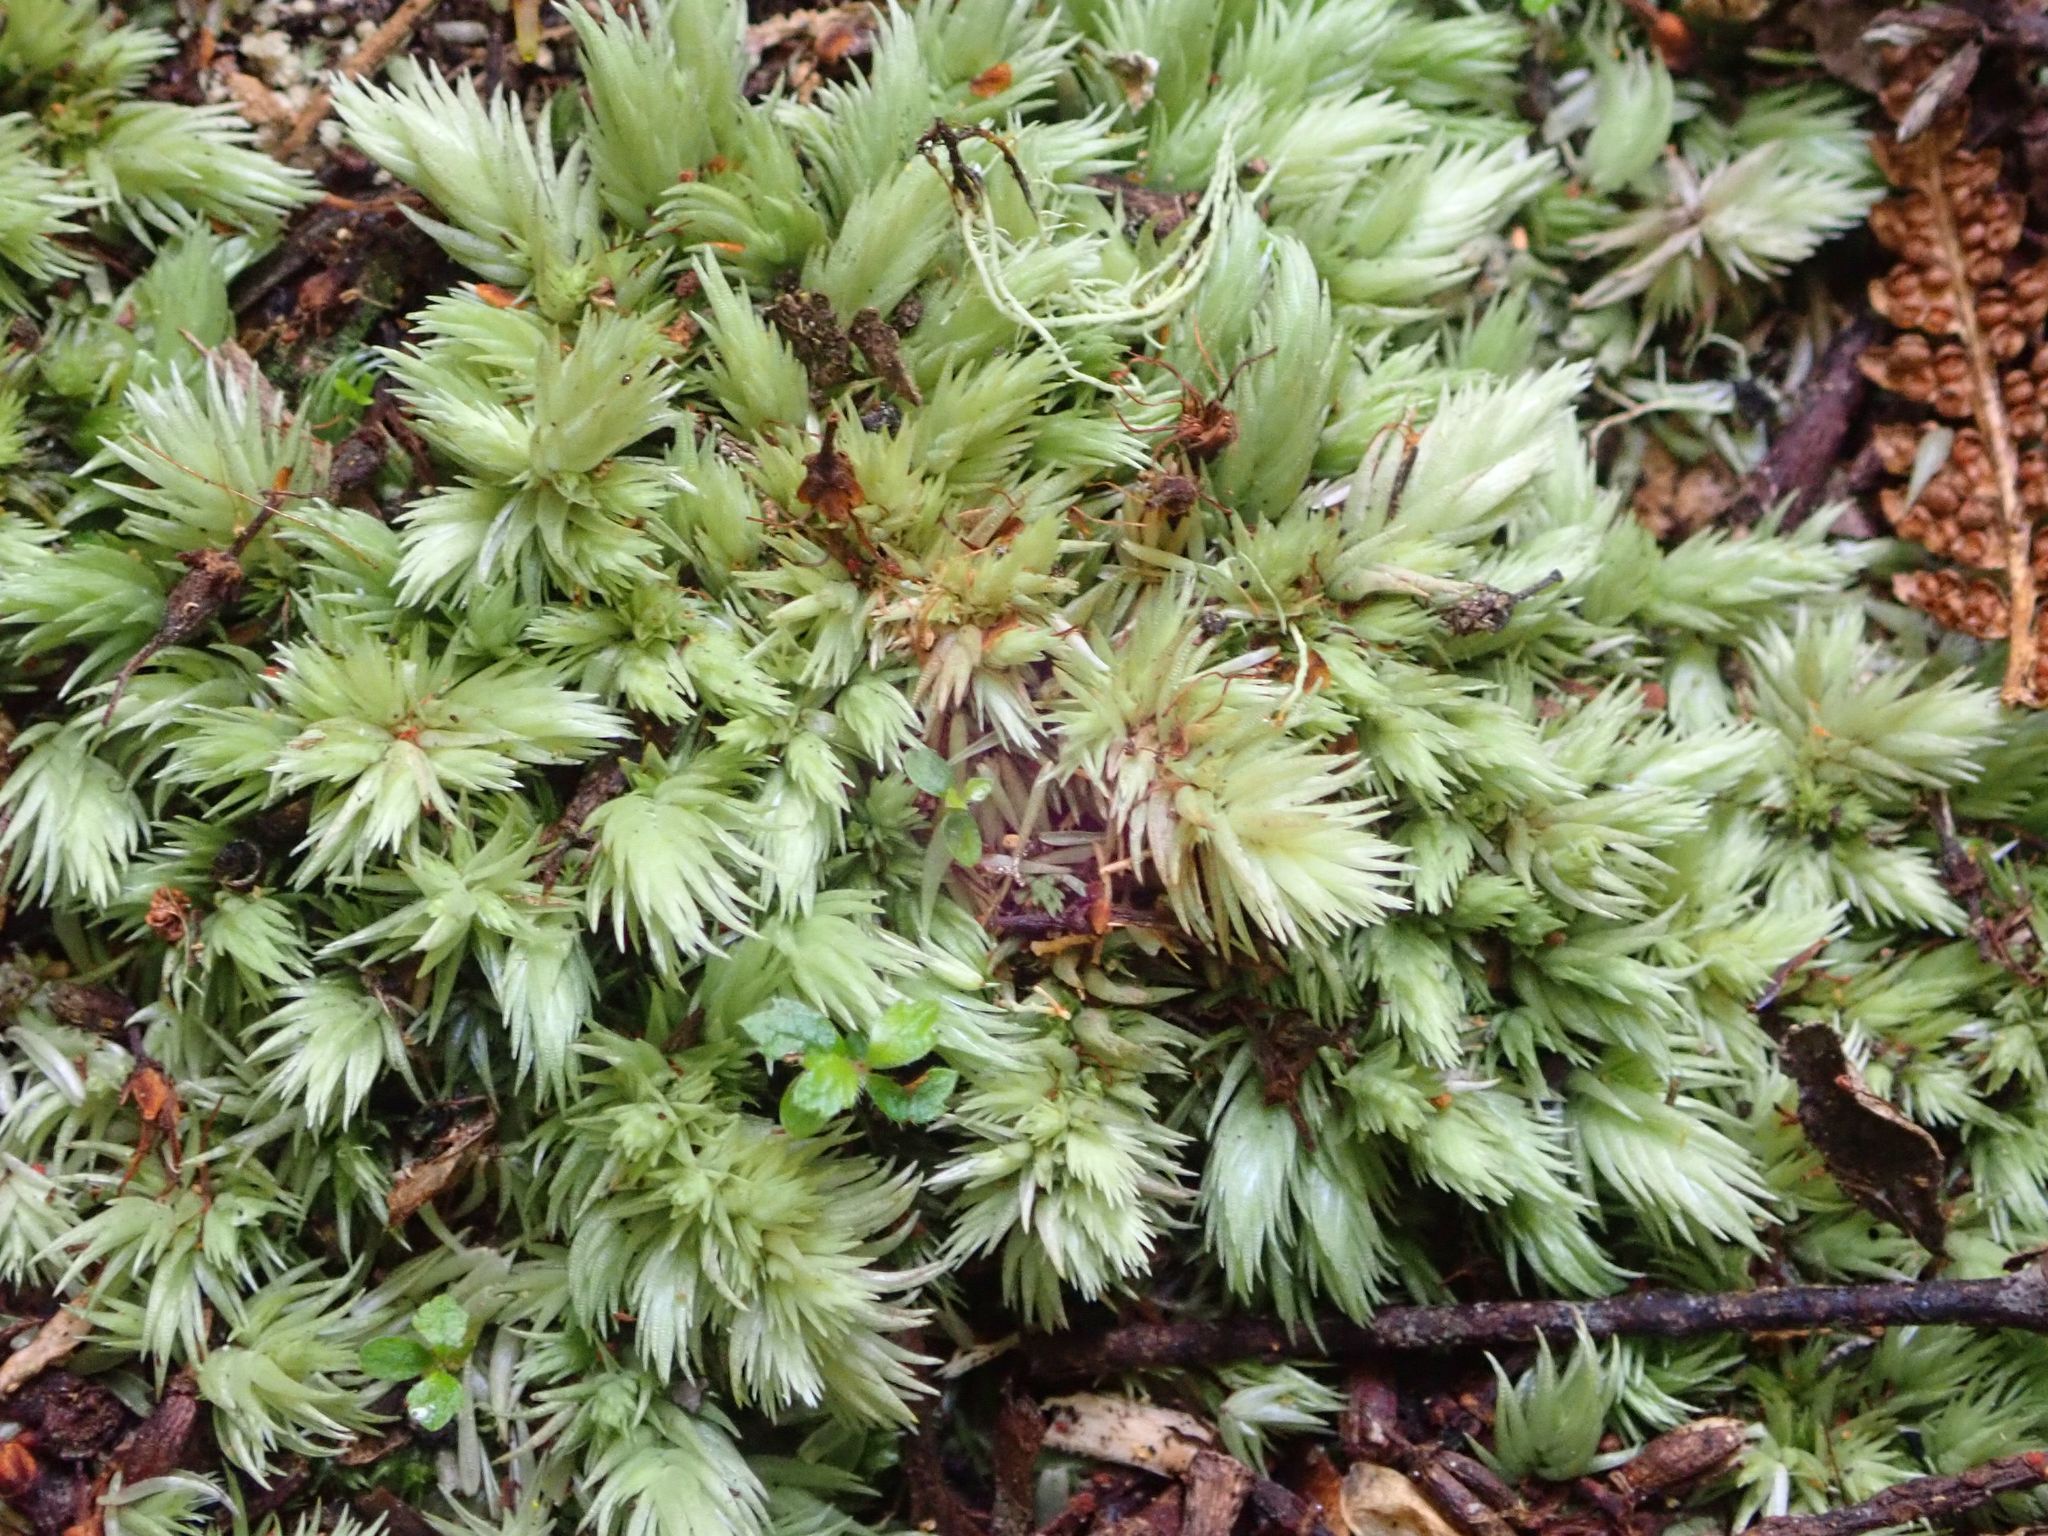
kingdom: Plantae
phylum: Bryophyta
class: Bryopsida
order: Dicranales
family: Leucobryaceae
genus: Leucobryum
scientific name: Leucobryum javense
